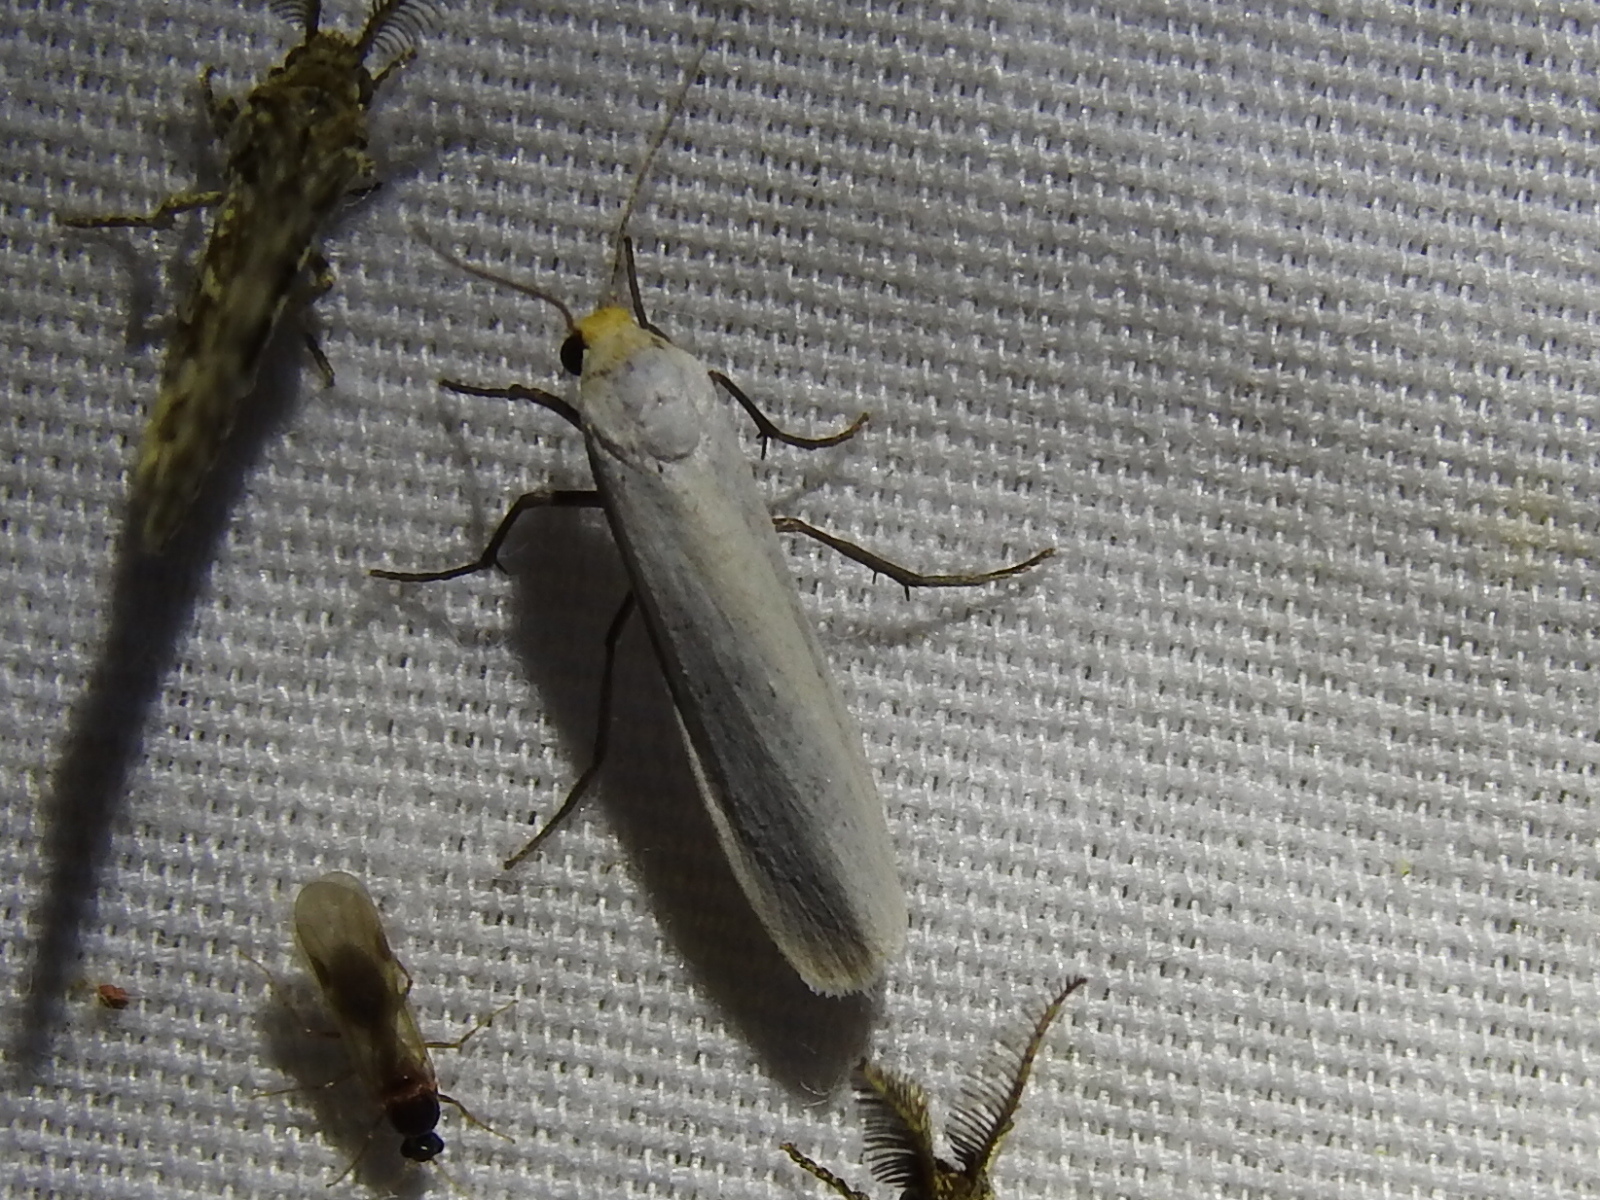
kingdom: Animalia
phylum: Arthropoda
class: Insecta
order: Lepidoptera
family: Erebidae
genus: Crambidia
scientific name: Crambidia cephalica
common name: Yellow-headed lichen moth
